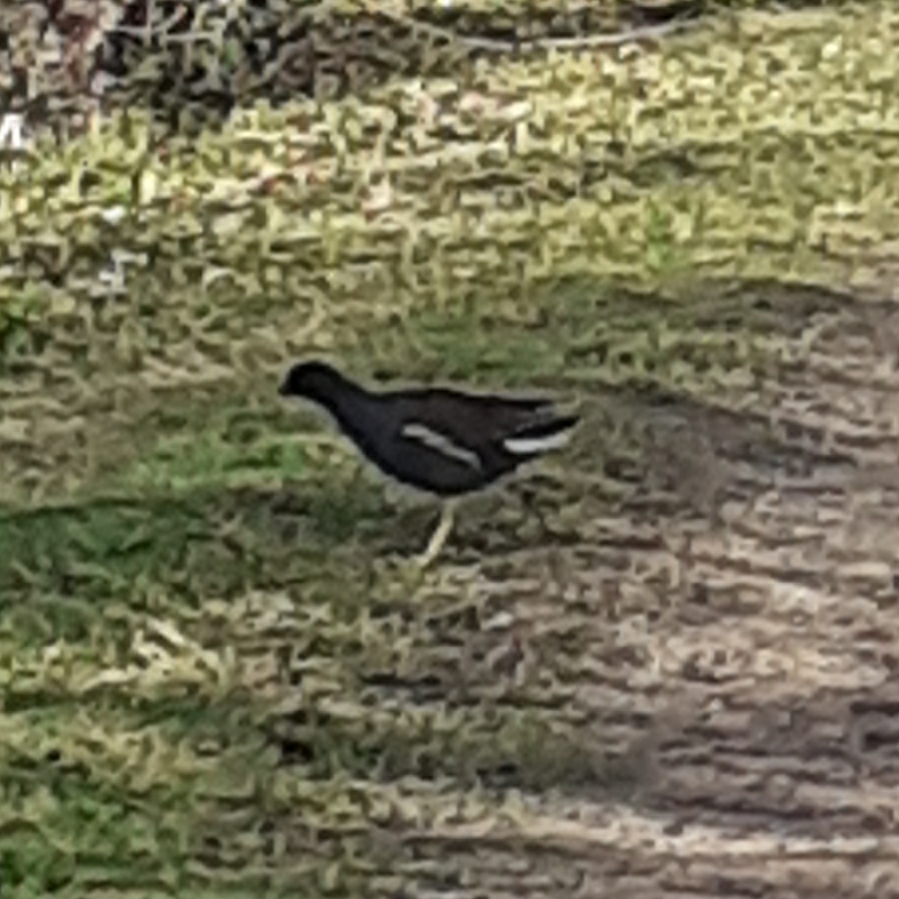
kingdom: Animalia
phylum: Chordata
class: Aves
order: Gruiformes
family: Rallidae
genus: Gallinula
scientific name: Gallinula chloropus
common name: Common moorhen
